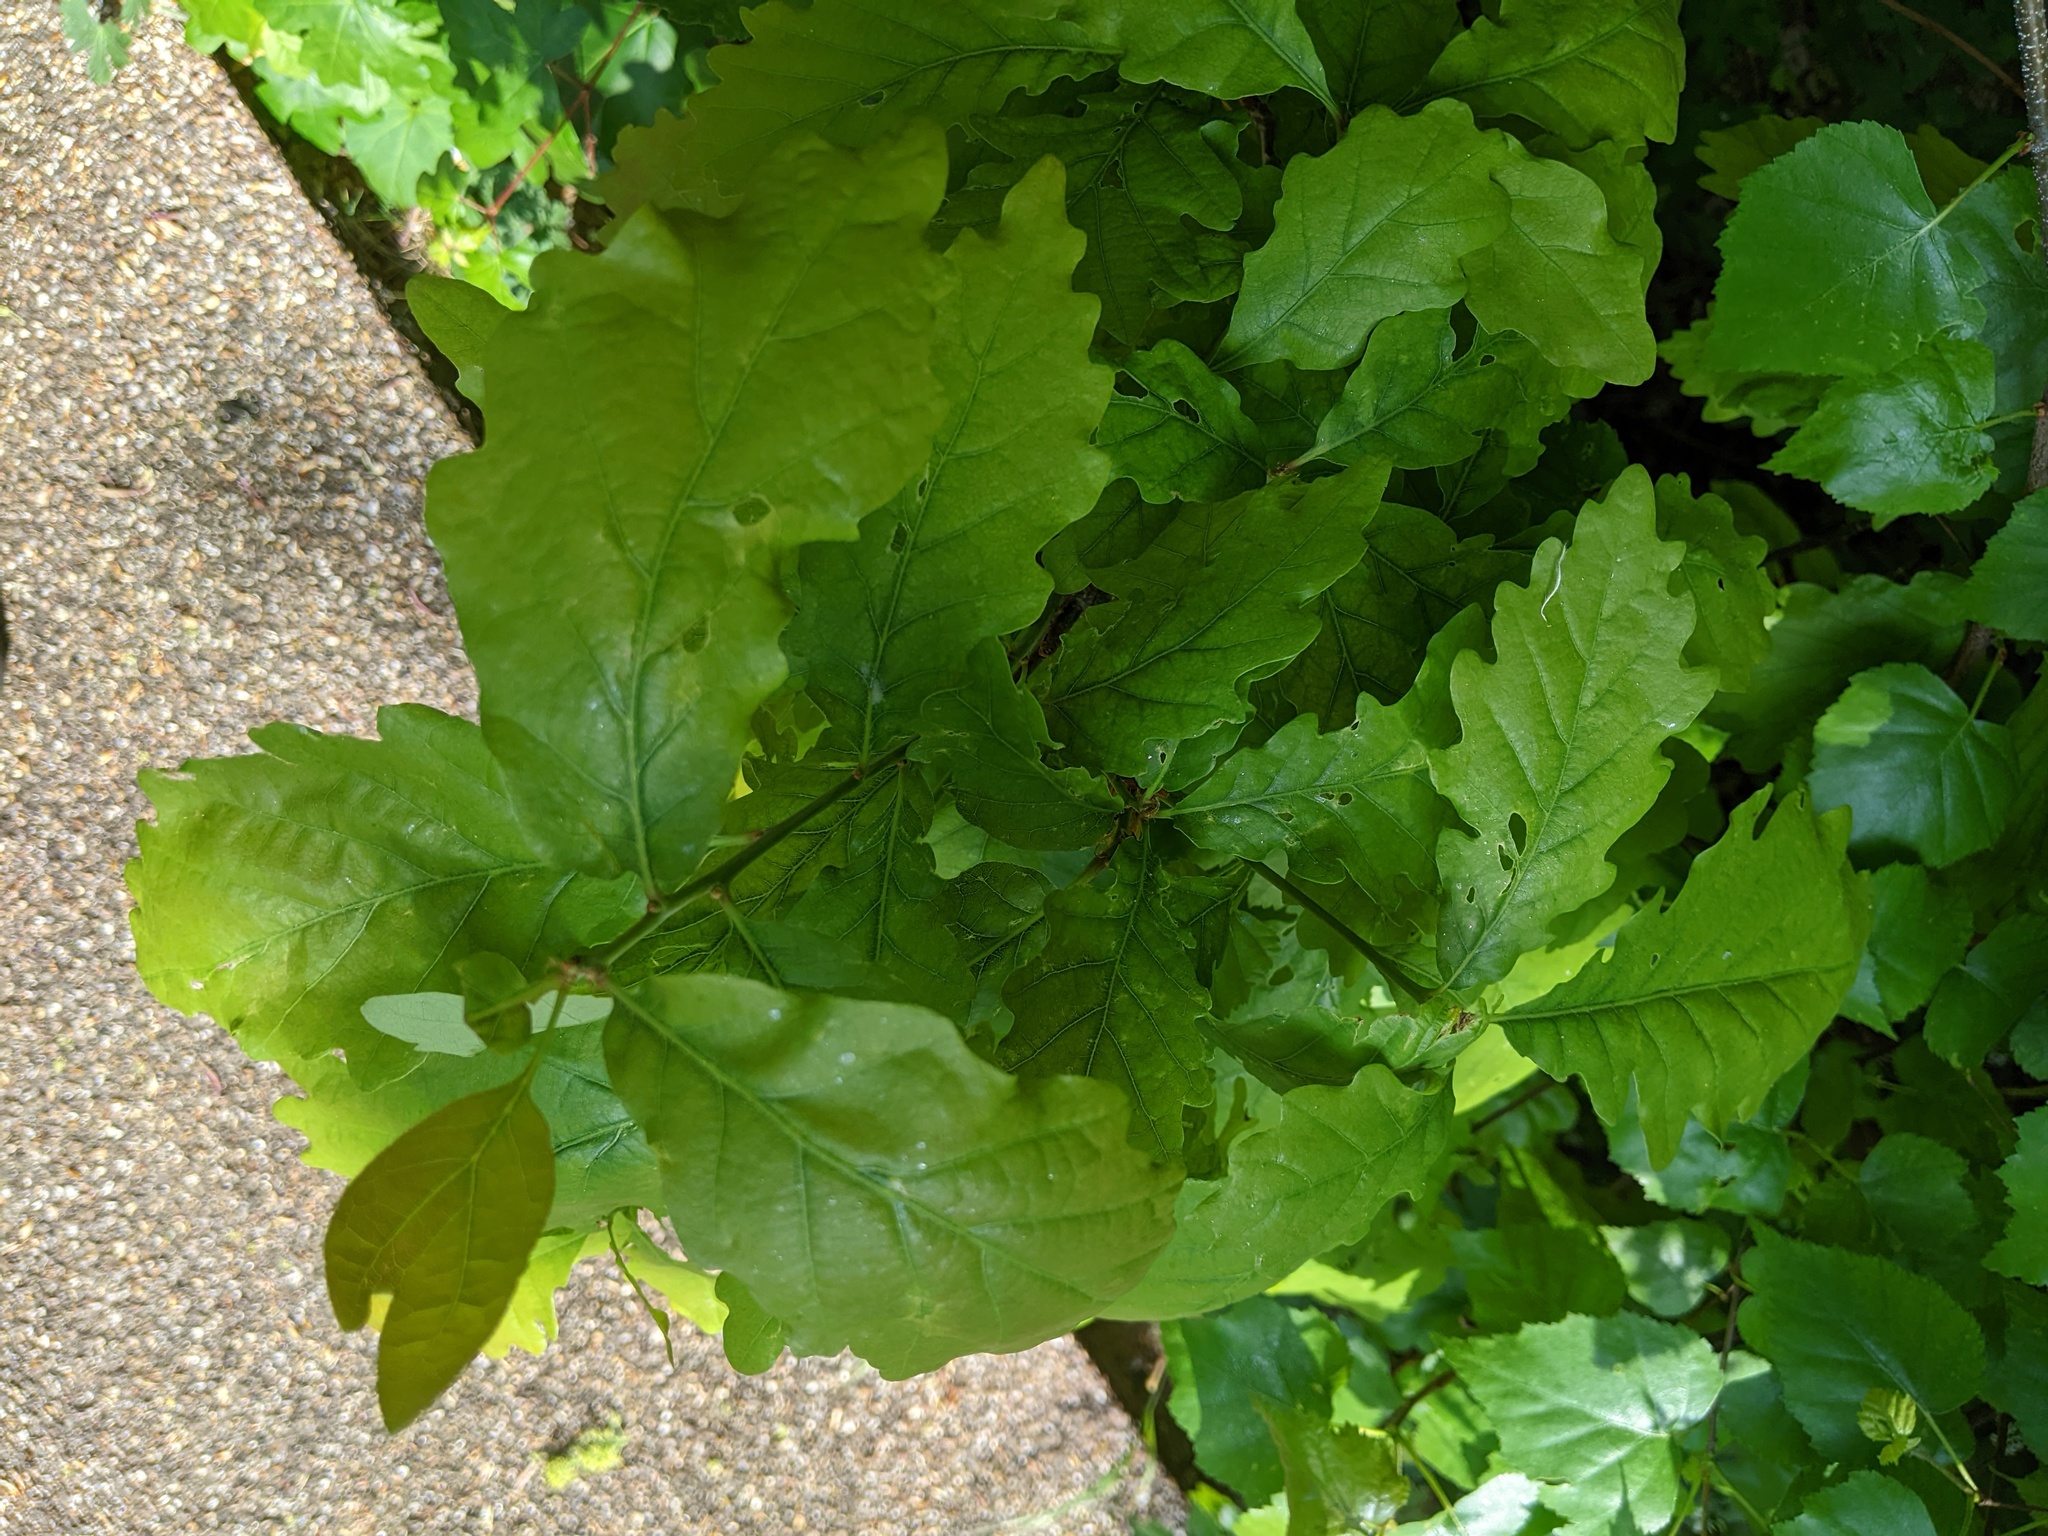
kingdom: Plantae
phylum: Tracheophyta
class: Magnoliopsida
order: Fagales
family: Fagaceae
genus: Quercus
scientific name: Quercus robur
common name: Pedunculate oak
